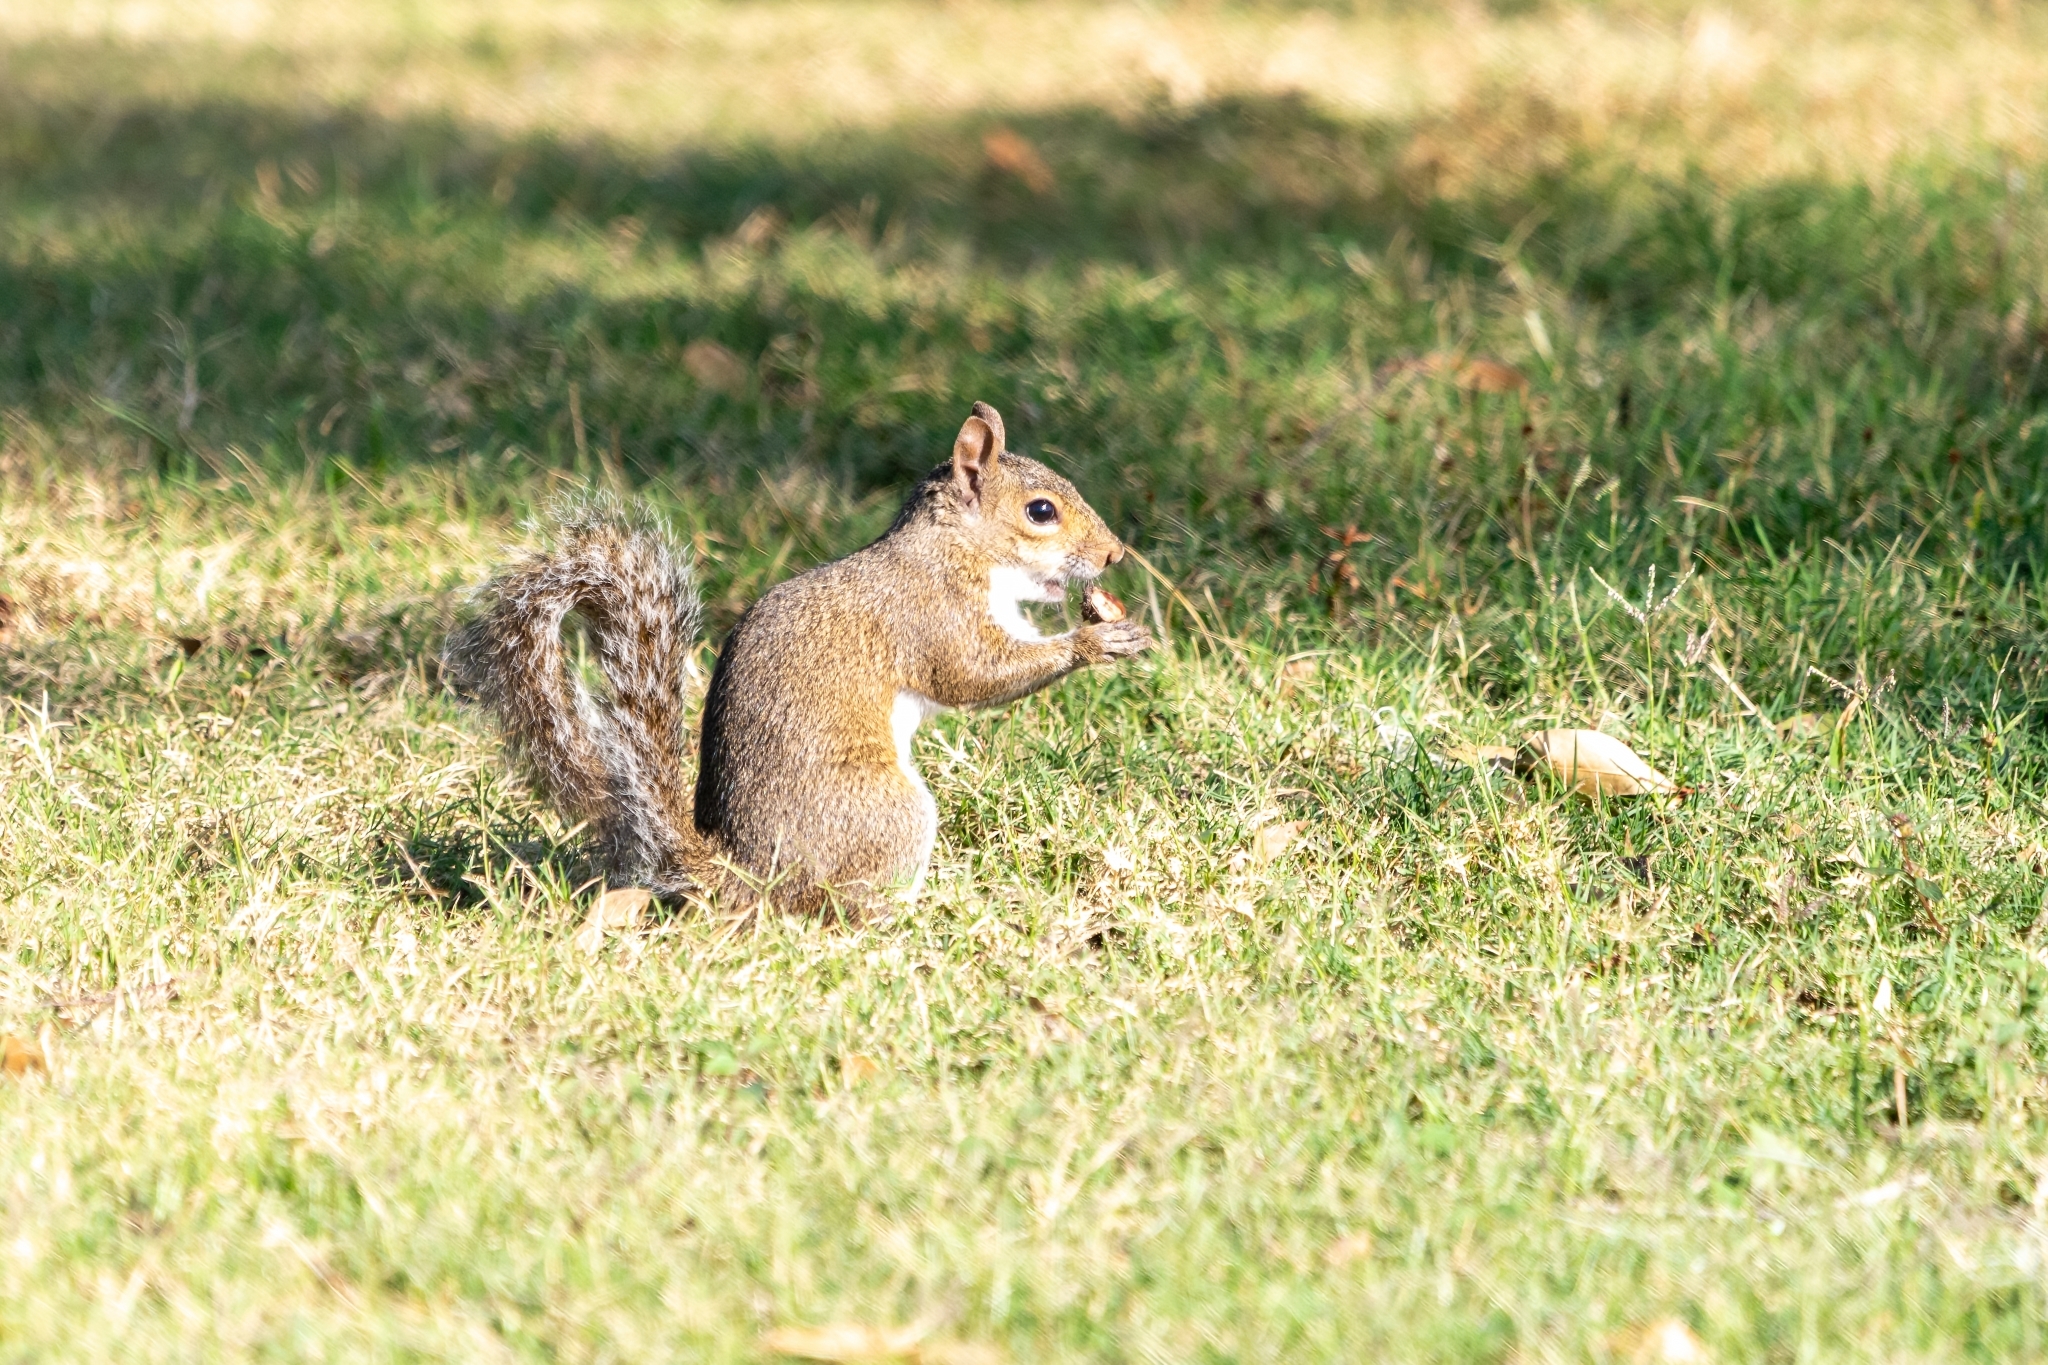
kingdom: Animalia
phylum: Chordata
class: Mammalia
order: Rodentia
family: Sciuridae
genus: Sciurus
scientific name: Sciurus carolinensis
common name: Eastern gray squirrel
